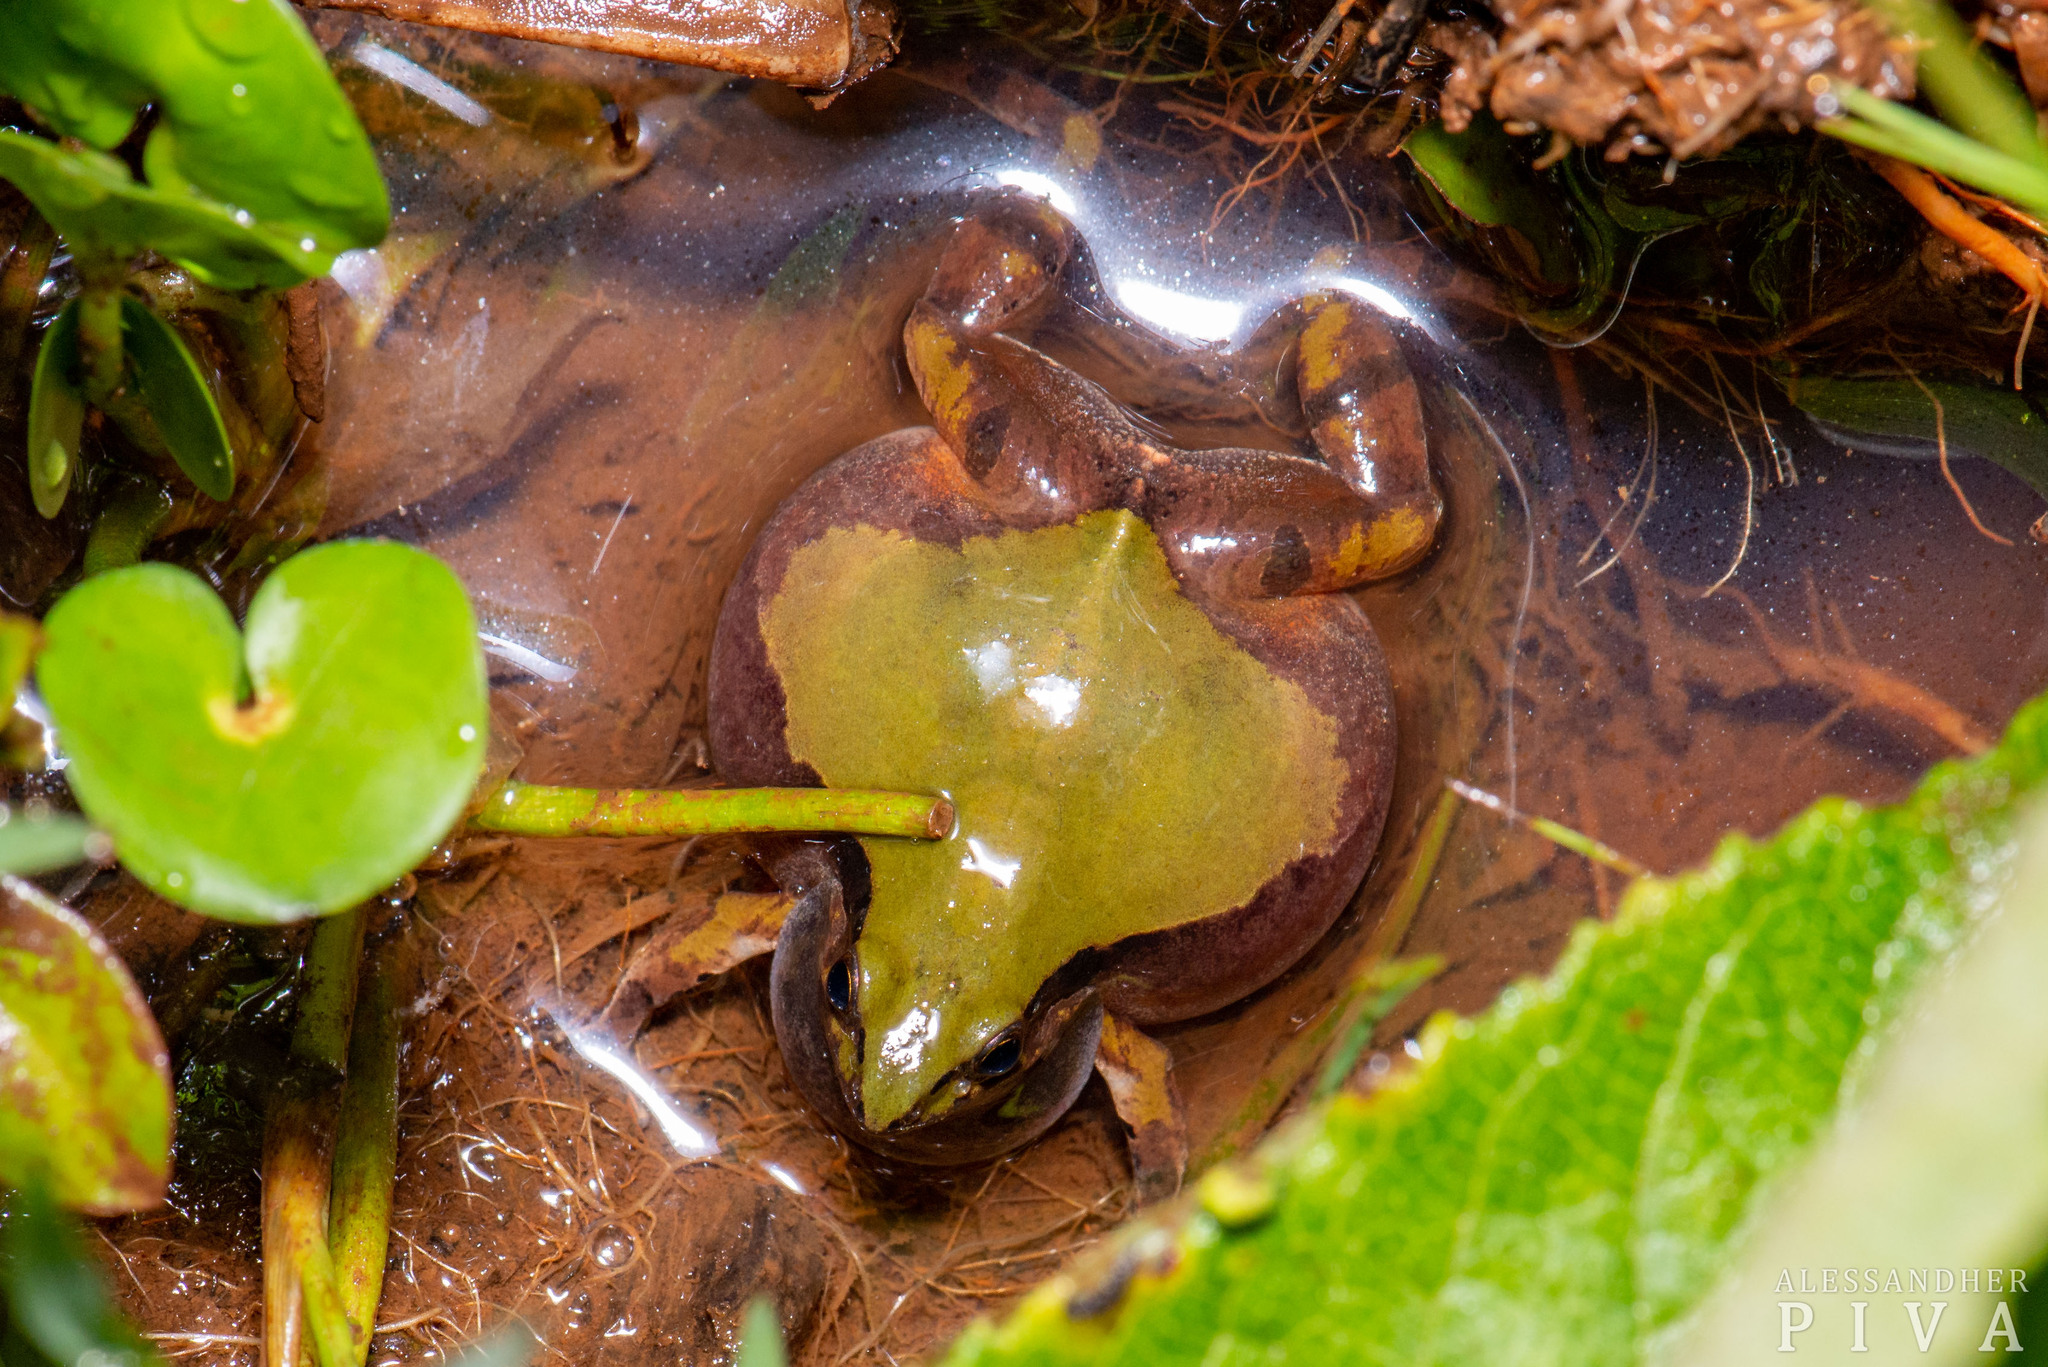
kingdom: Animalia
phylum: Chordata
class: Amphibia
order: Anura
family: Leptodactylidae
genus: Physalaemus
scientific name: Physalaemus cuvieri
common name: Barker frog
